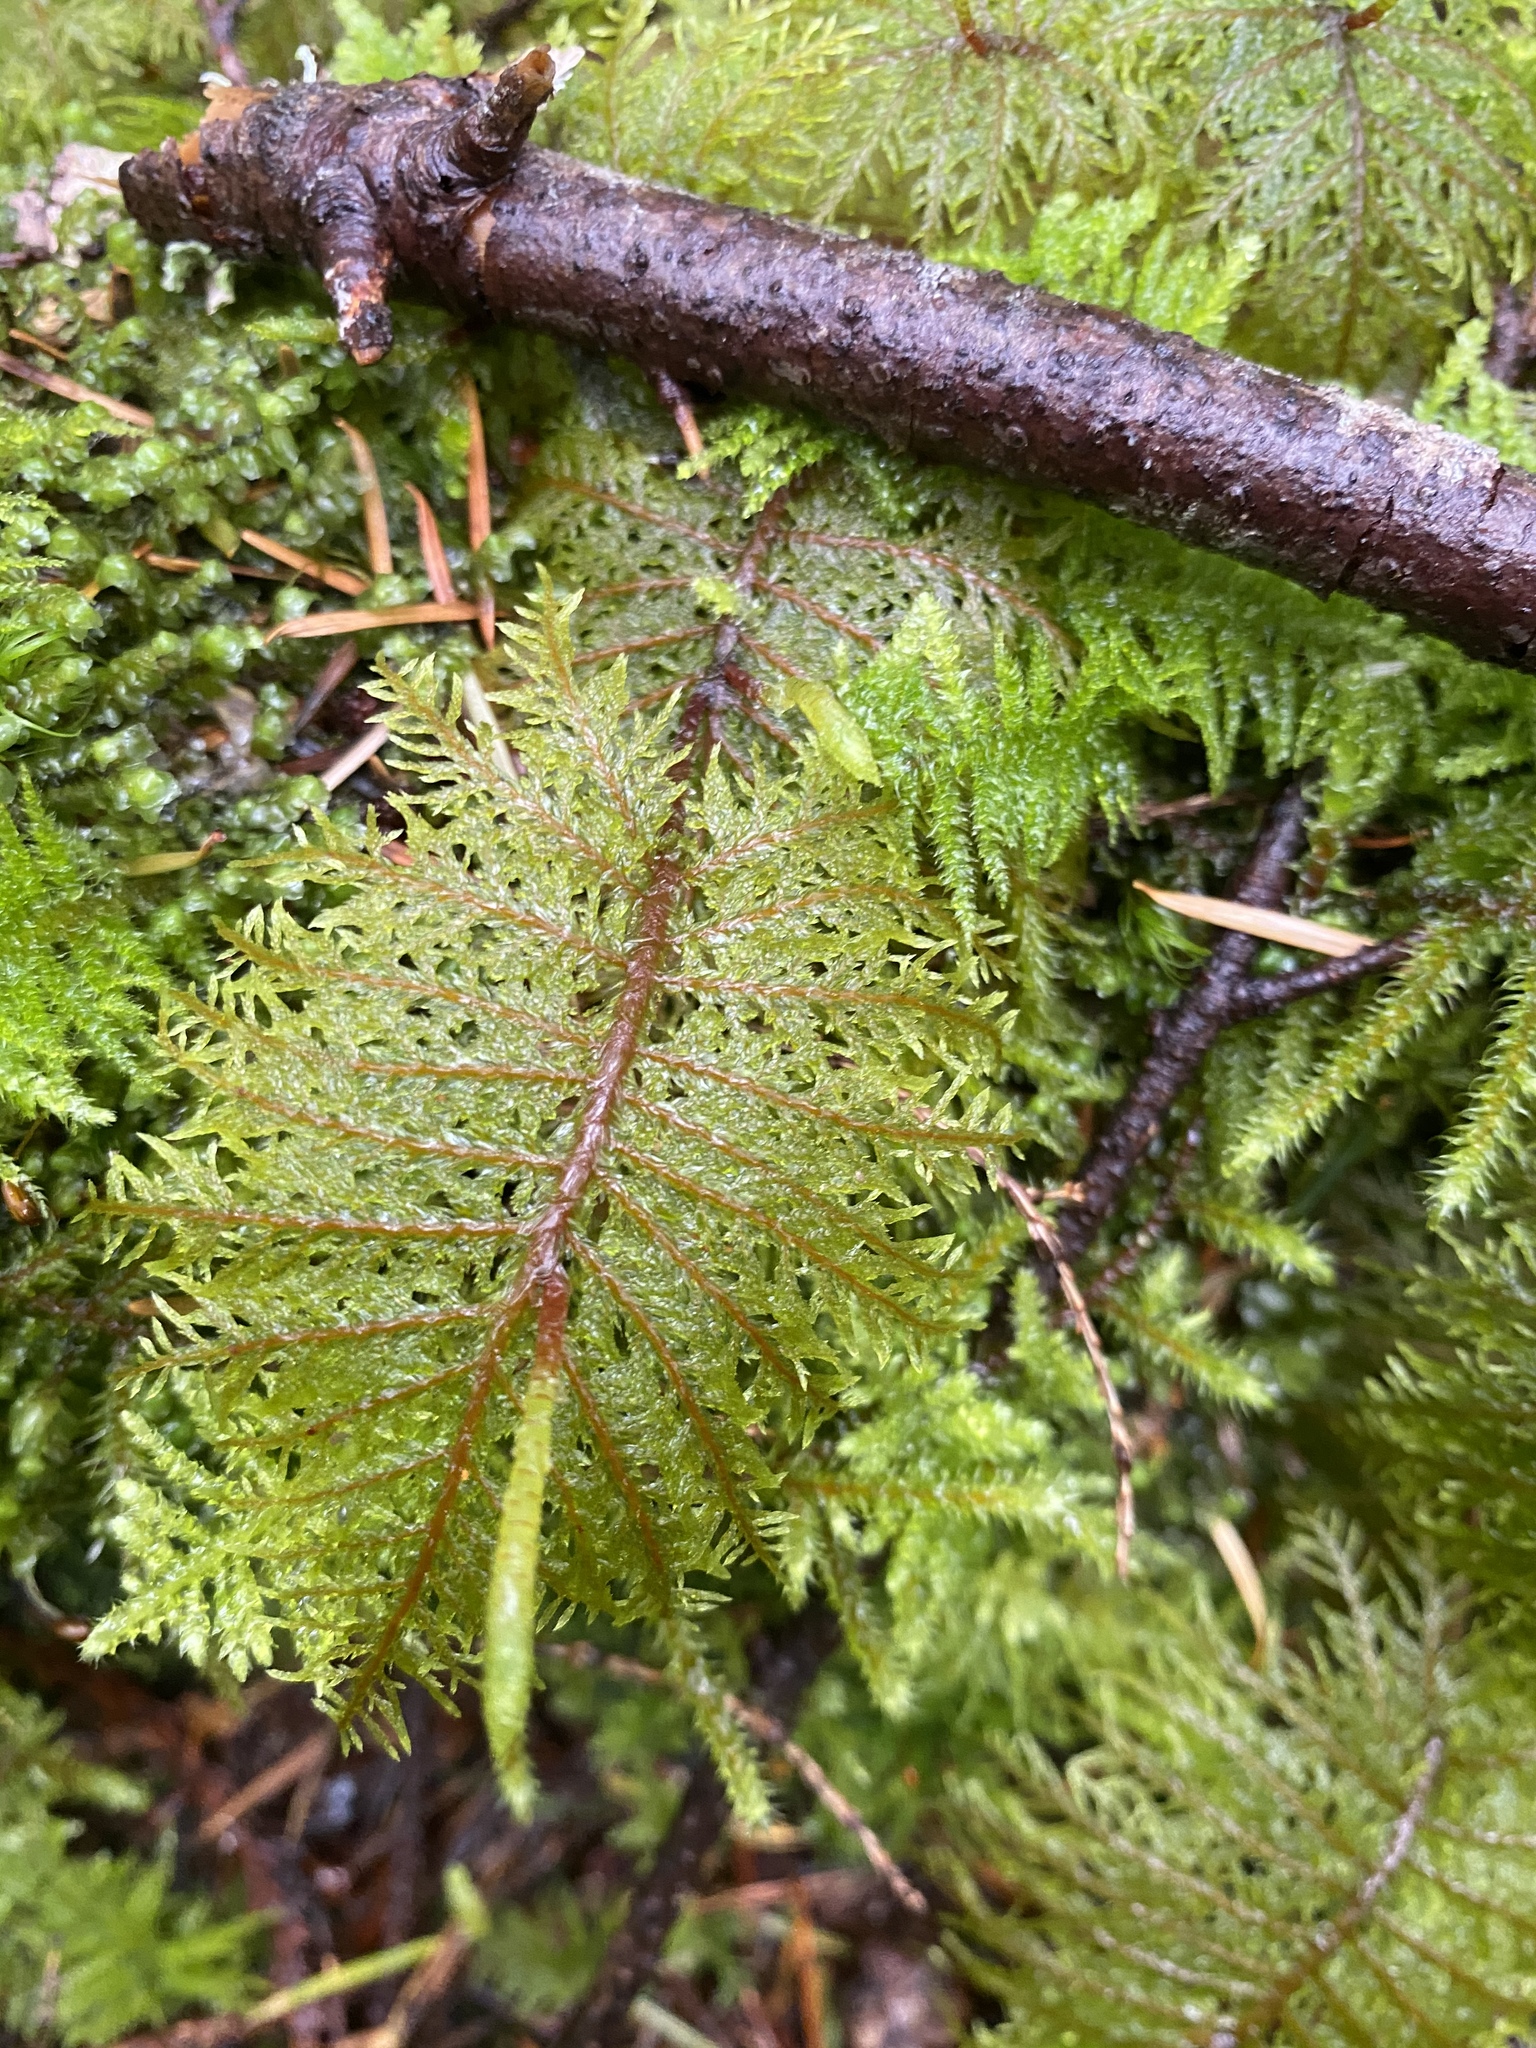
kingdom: Plantae
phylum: Bryophyta
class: Bryopsida
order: Hypnales
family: Hylocomiaceae
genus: Hylocomium
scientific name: Hylocomium splendens
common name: Stairstep moss
